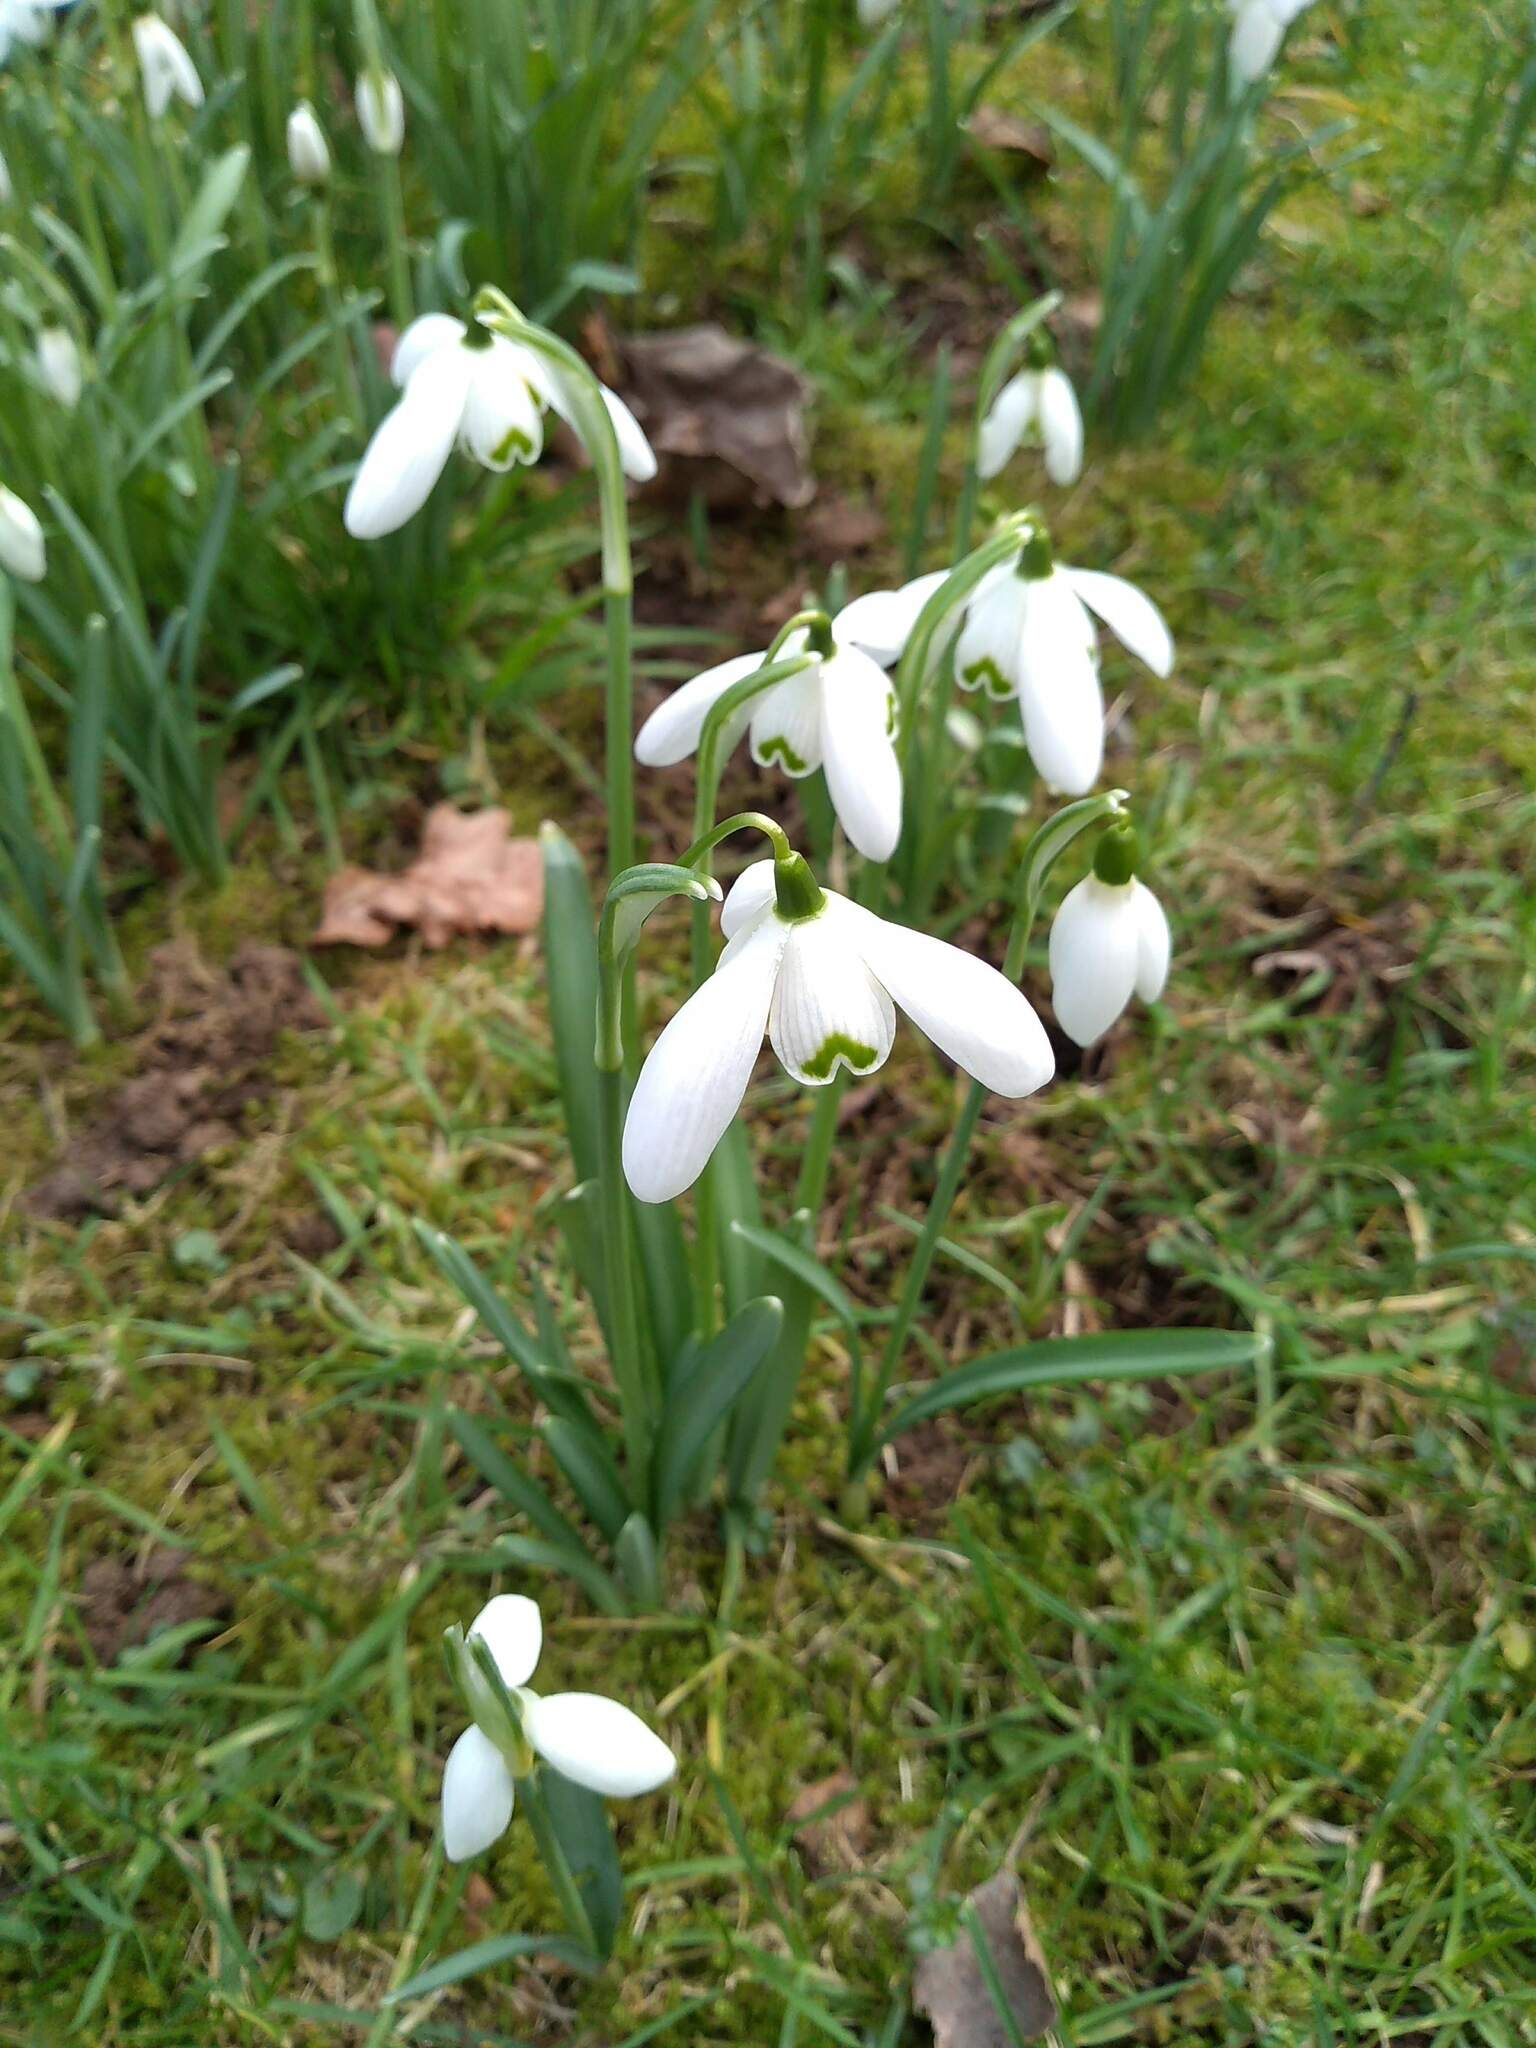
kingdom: Plantae
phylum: Tracheophyta
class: Liliopsida
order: Asparagales
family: Amaryllidaceae
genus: Galanthus
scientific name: Galanthus nivalis
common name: Snowdrop
